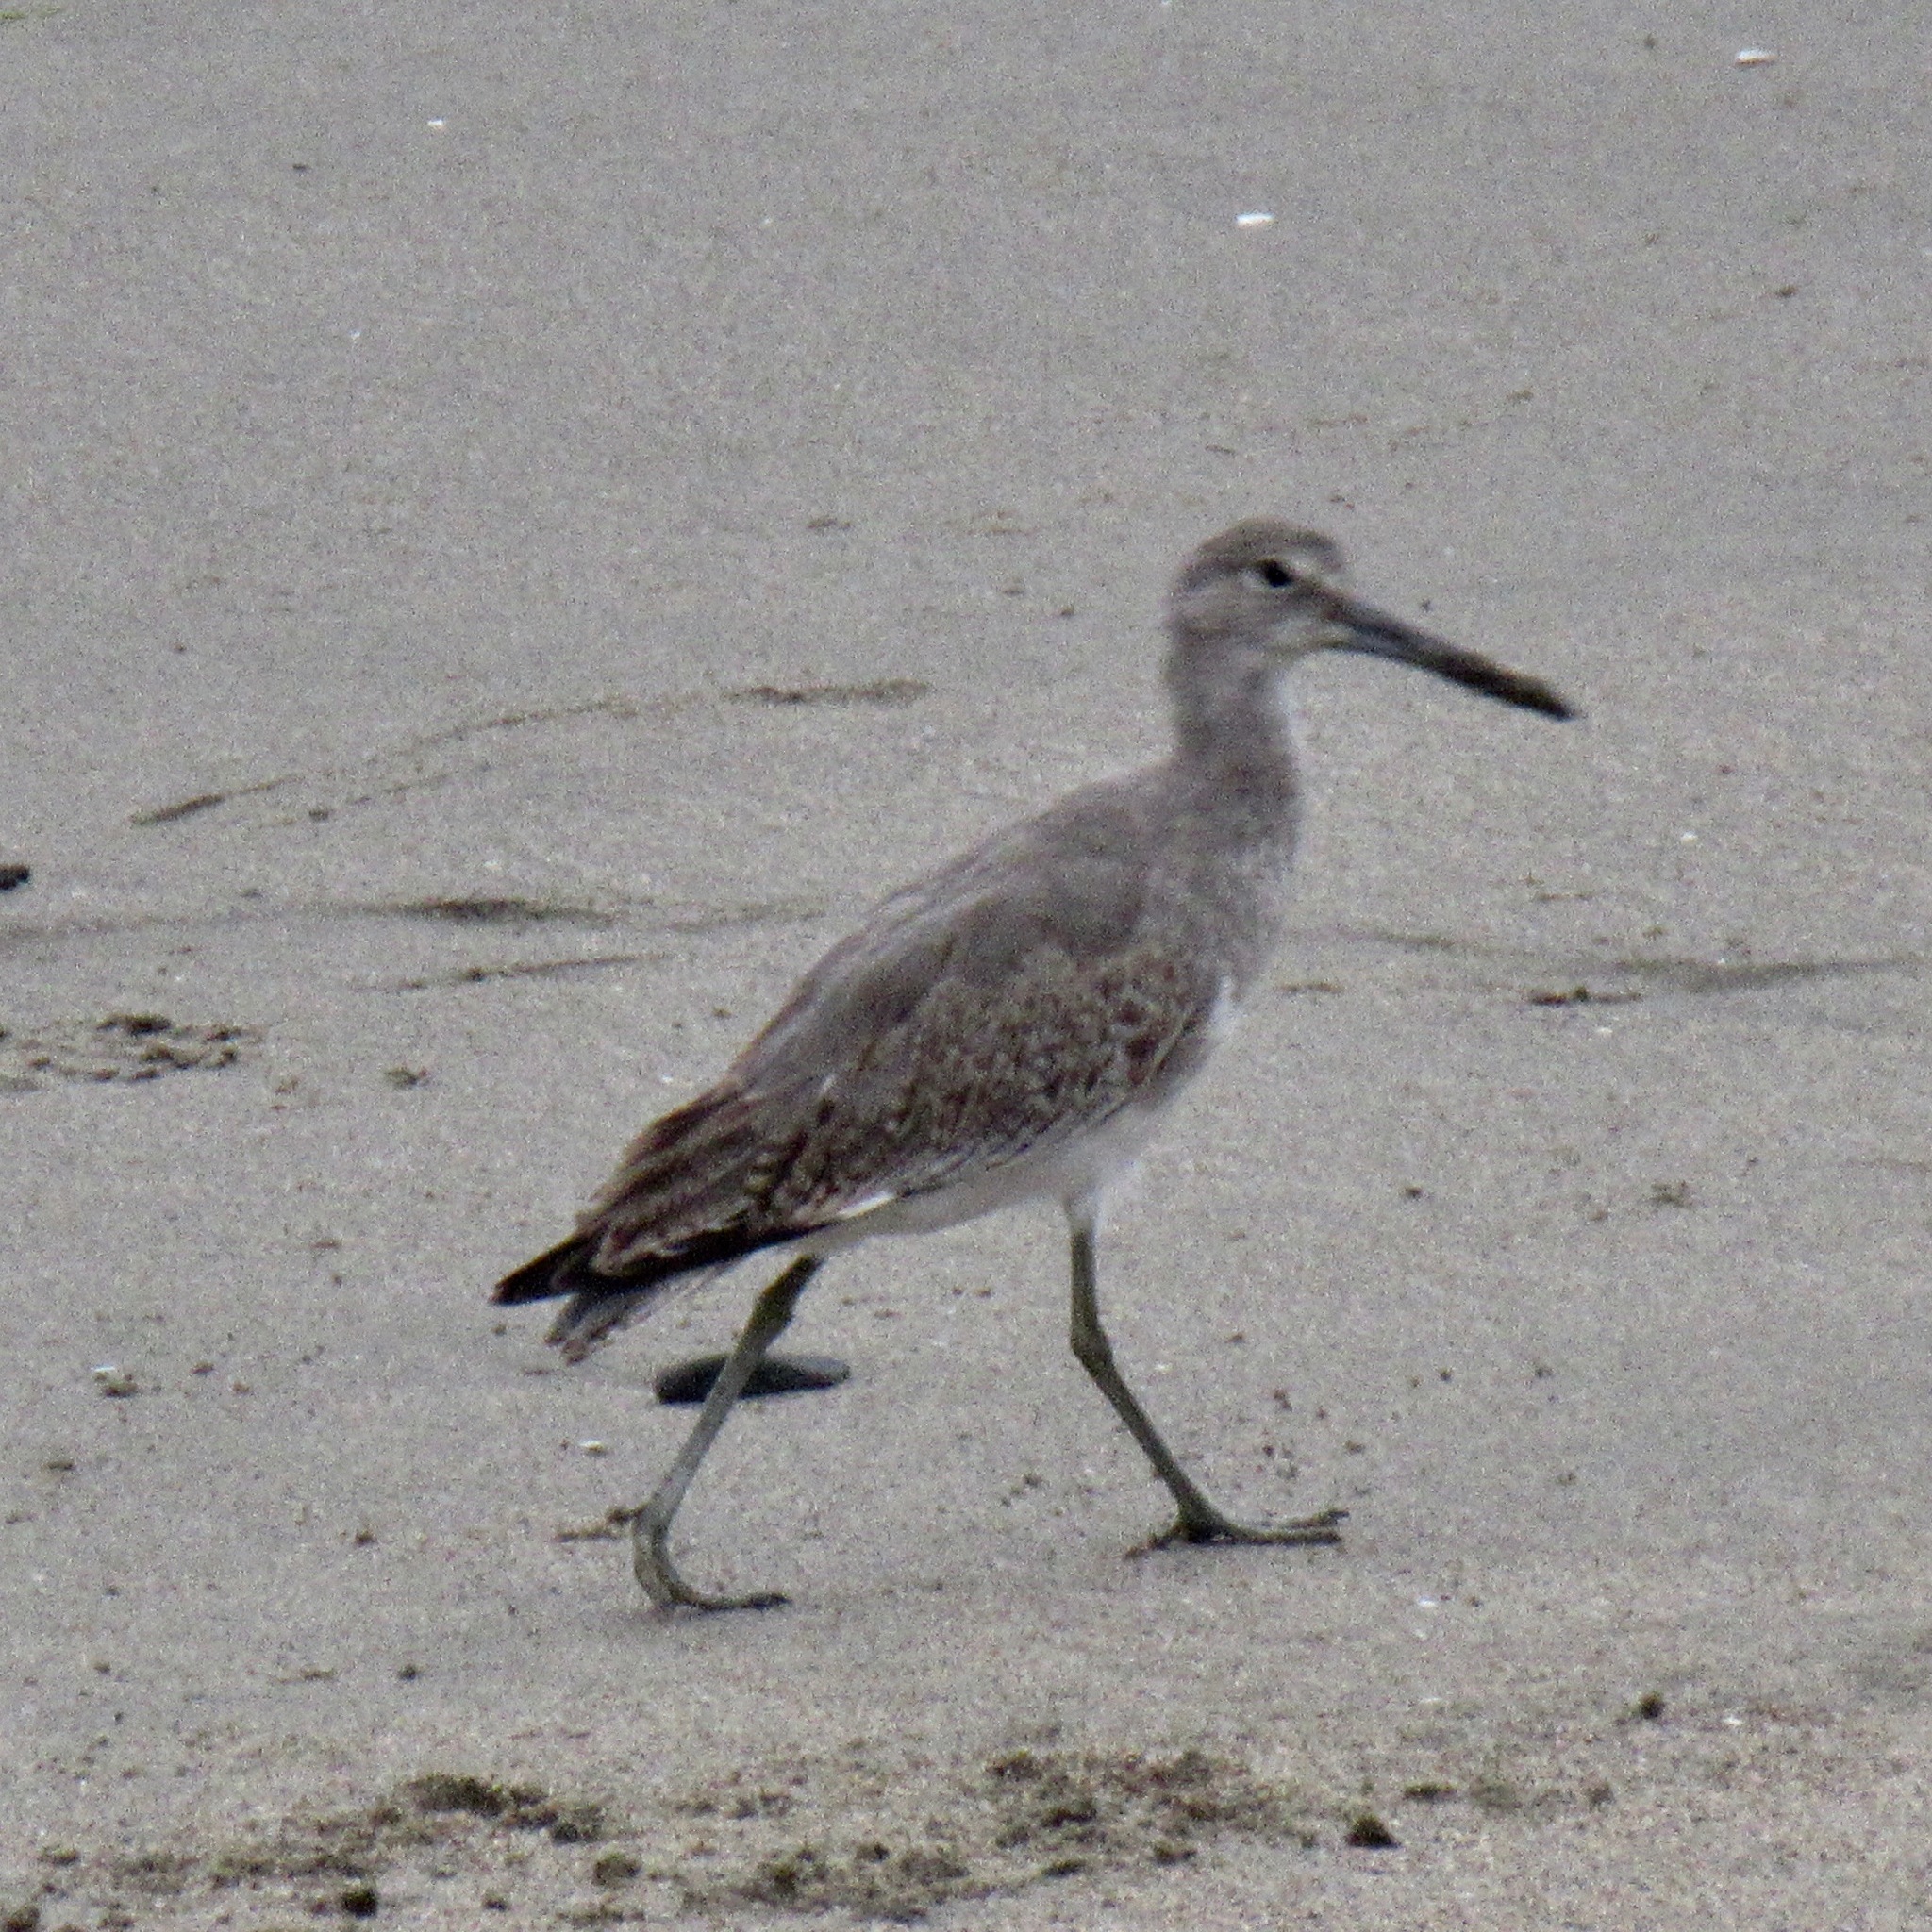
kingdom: Animalia
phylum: Chordata
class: Aves
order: Charadriiformes
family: Scolopacidae
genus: Tringa
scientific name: Tringa semipalmata
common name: Willet
